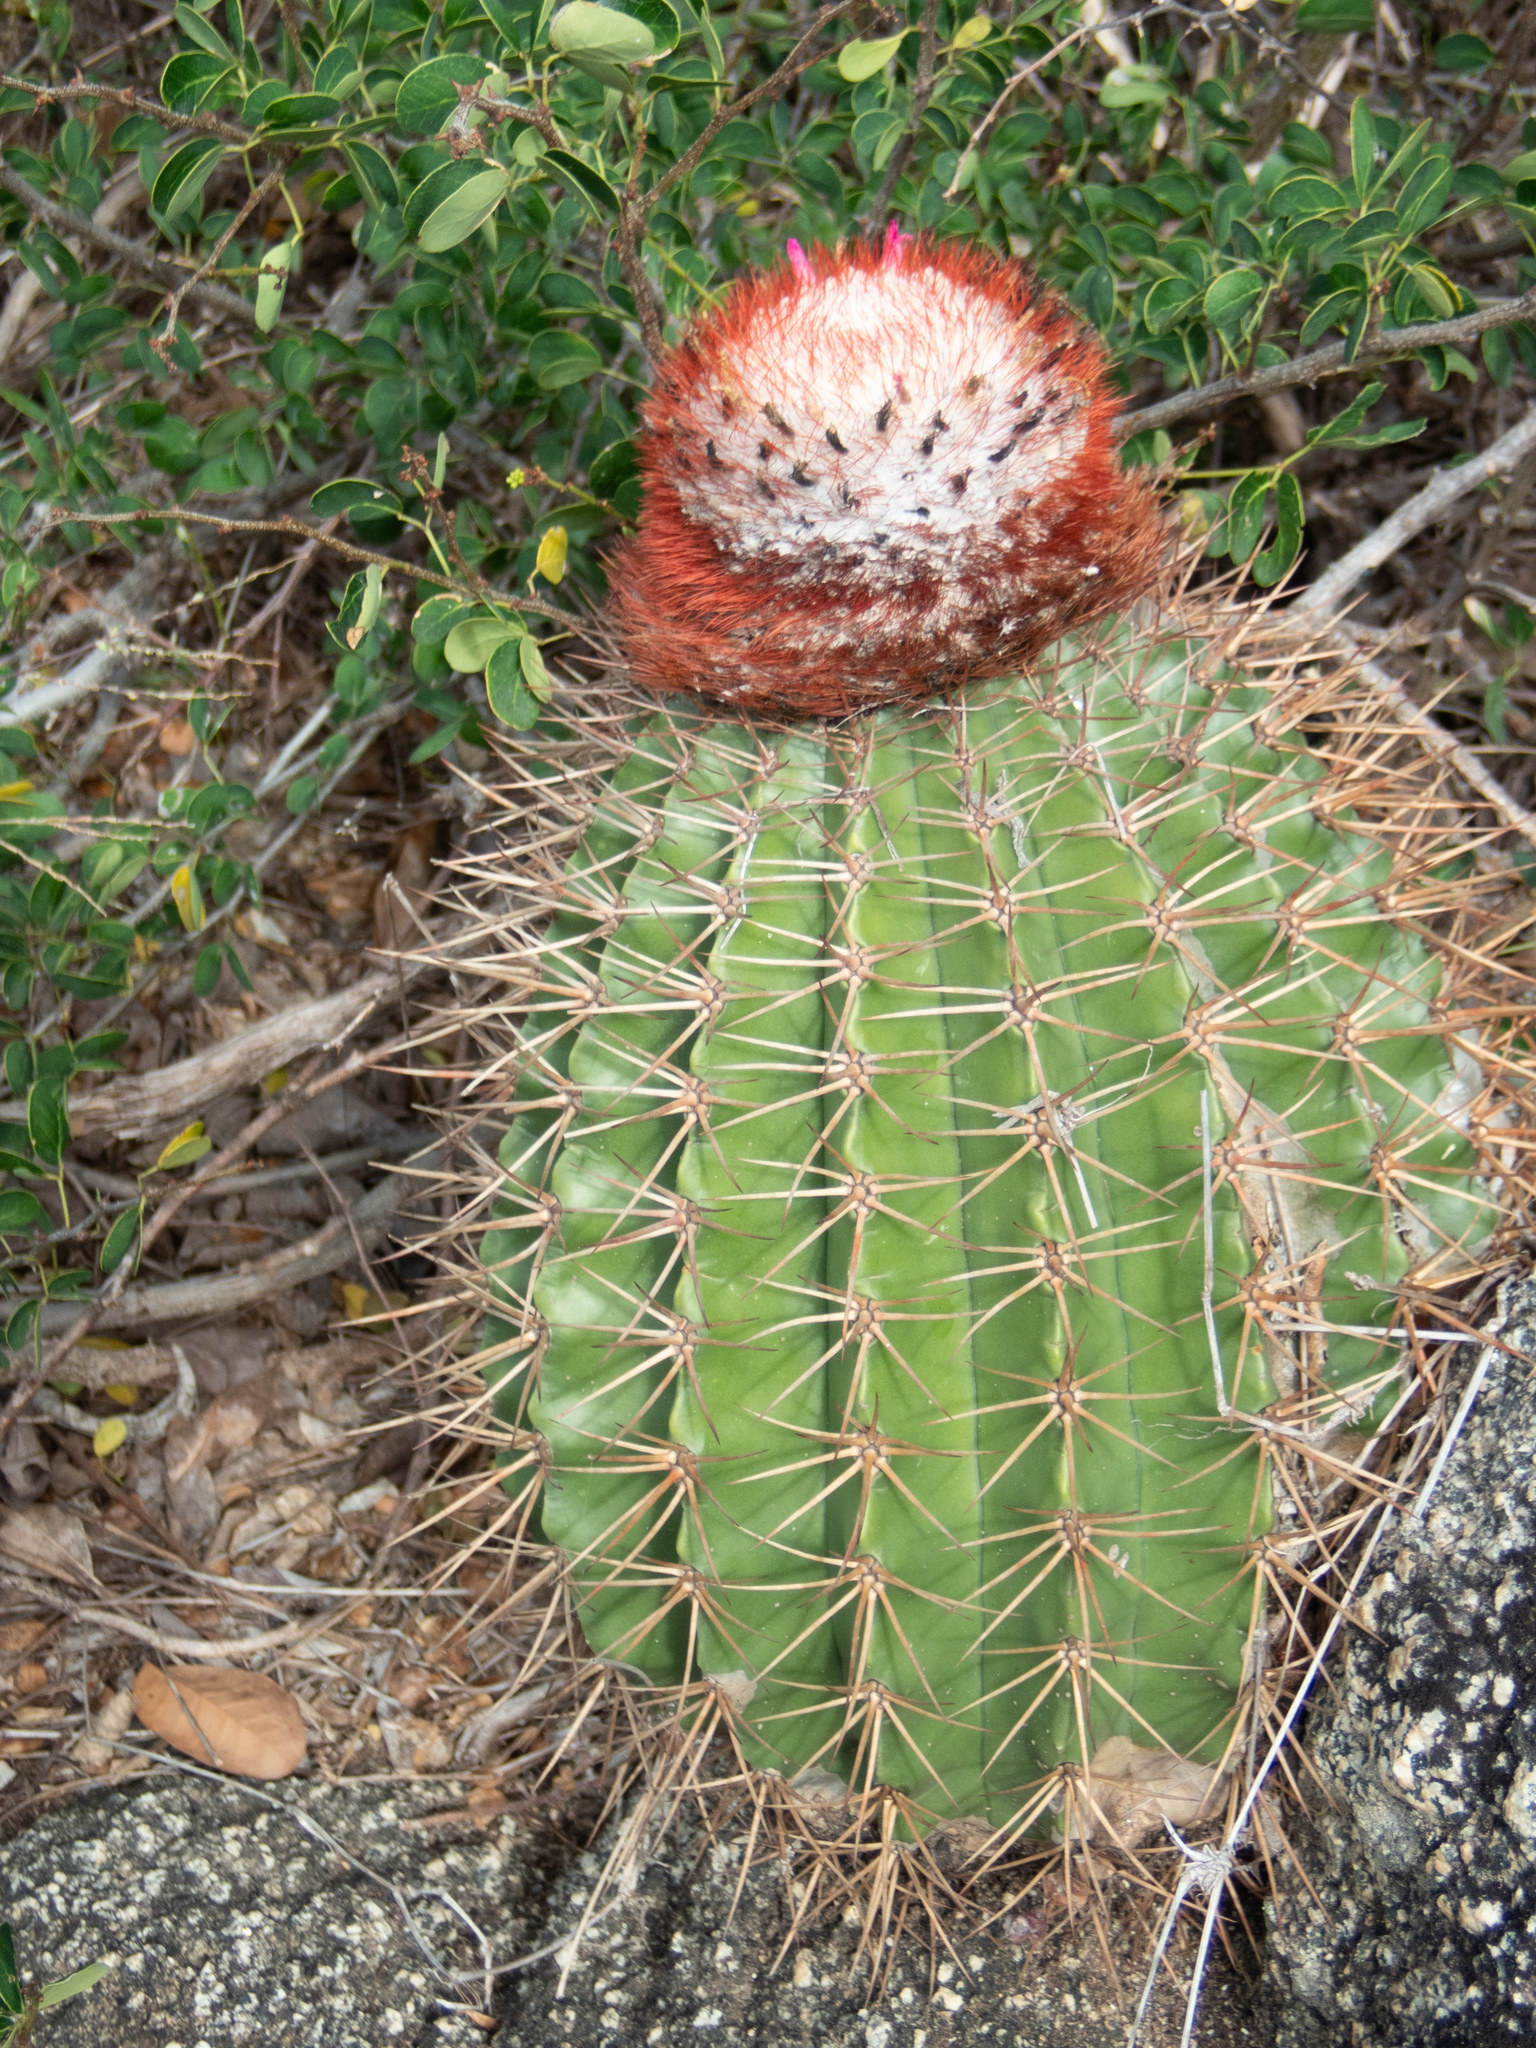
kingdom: Plantae
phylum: Tracheophyta
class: Magnoliopsida
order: Caryophyllales
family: Cactaceae
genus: Melocactus
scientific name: Melocactus intortus
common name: Barrel cactus
